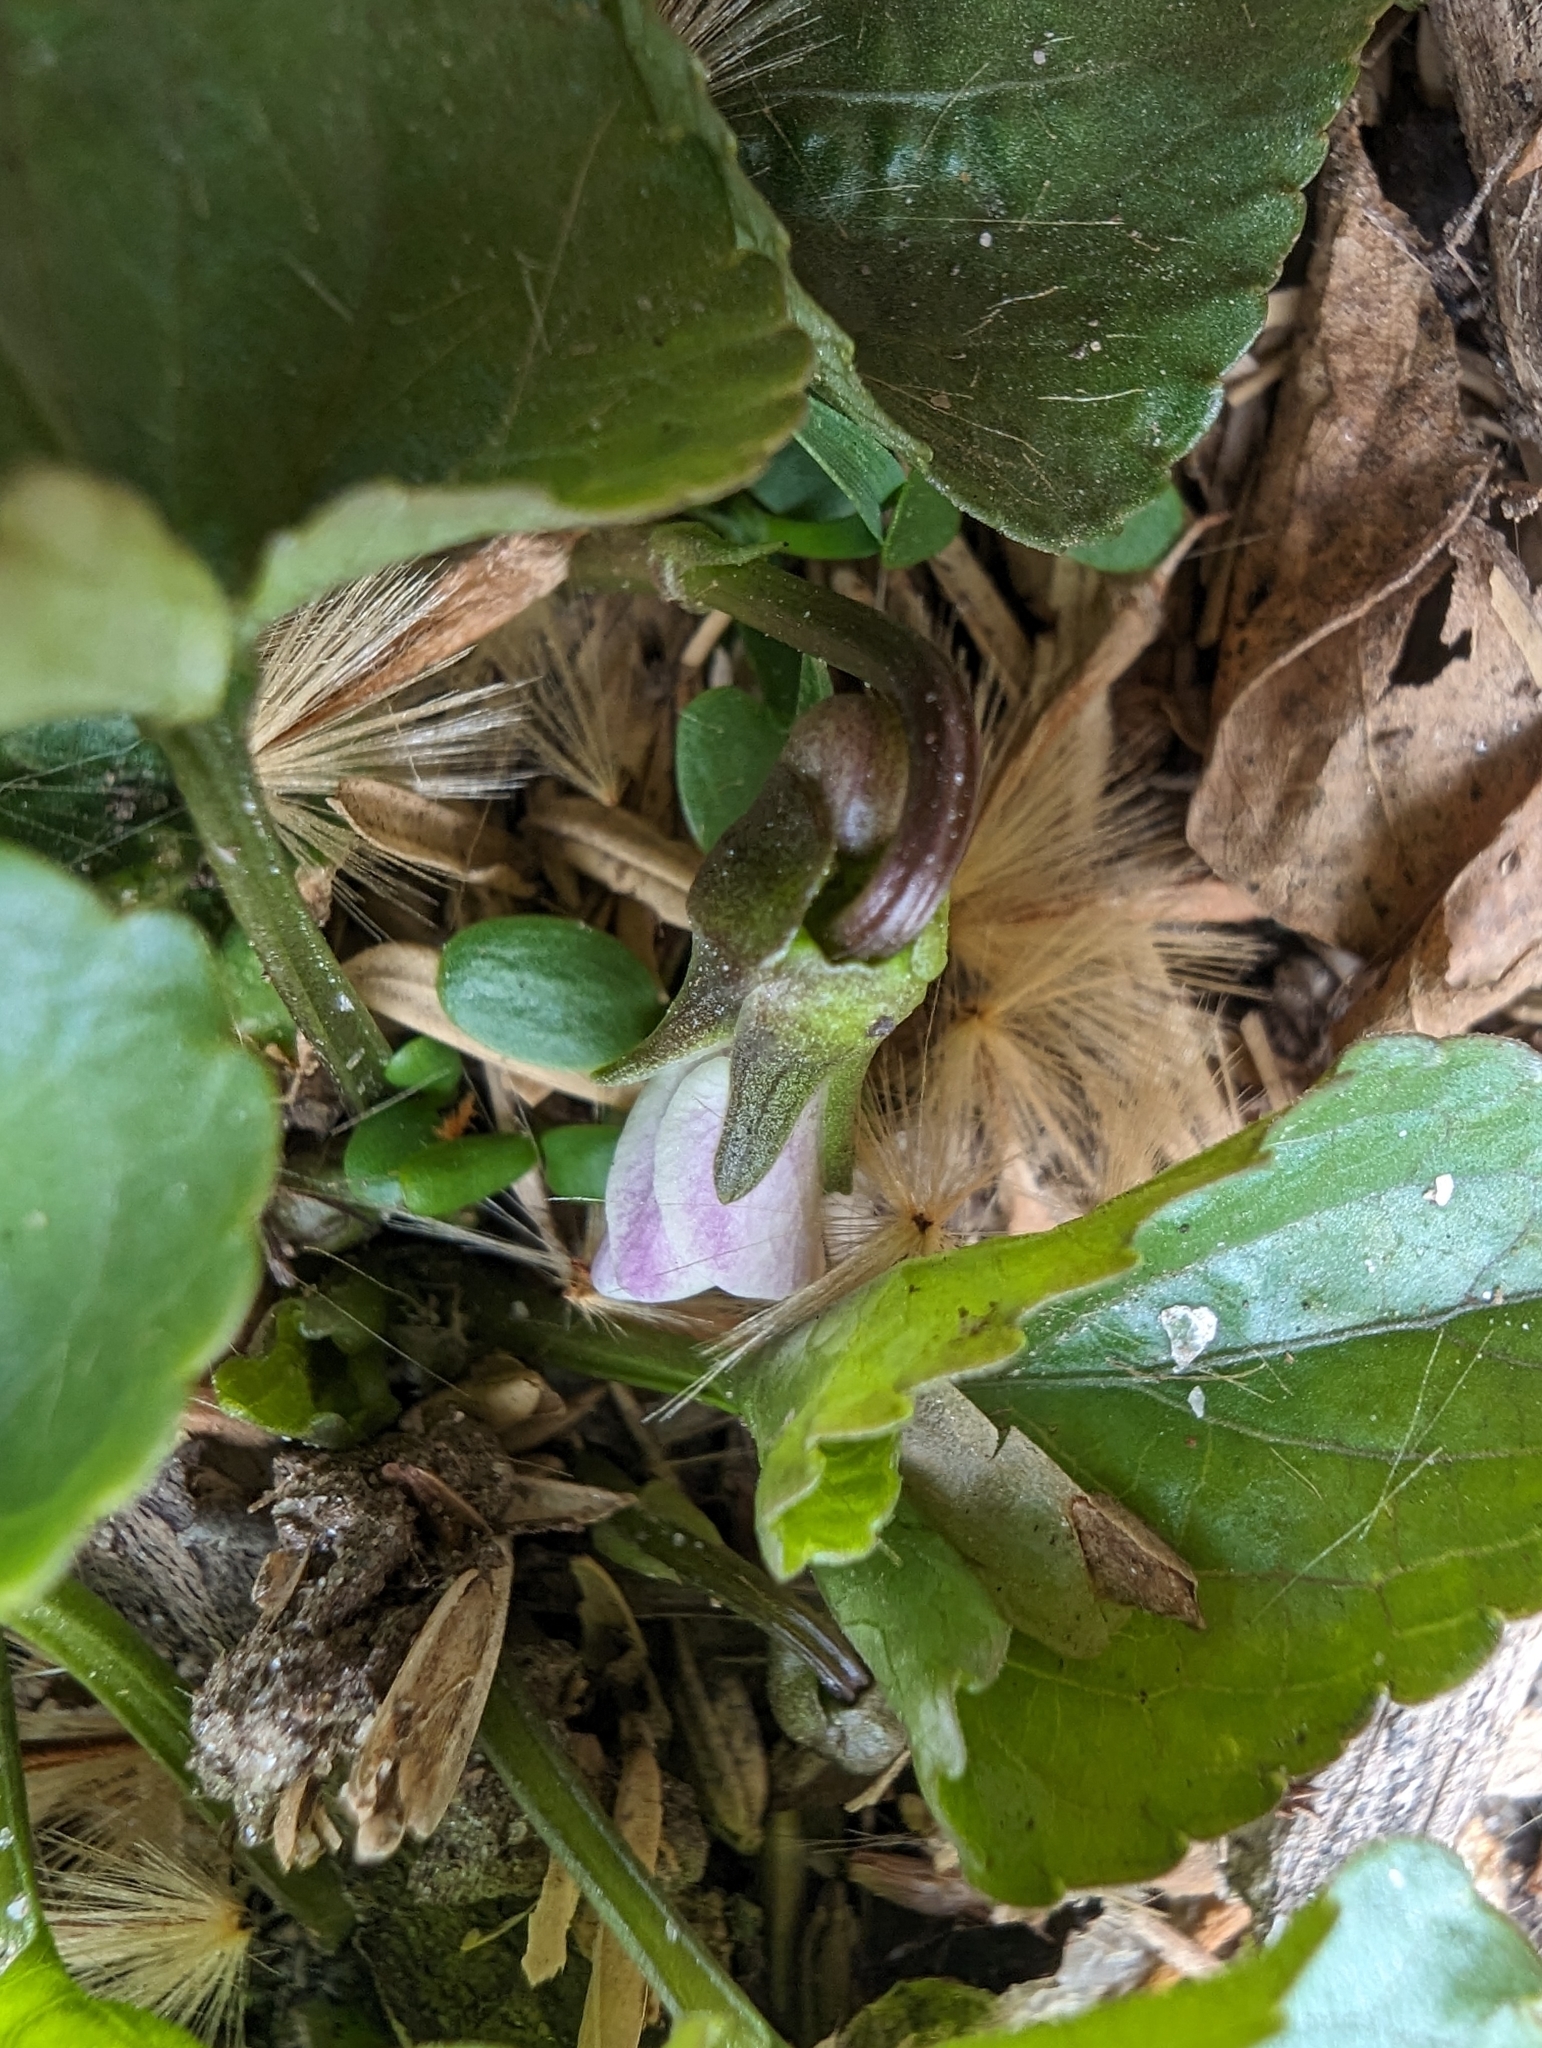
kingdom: Plantae
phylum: Tracheophyta
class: Magnoliopsida
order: Malpighiales
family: Violaceae
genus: Viola
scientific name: Viola sororia
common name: Dooryard violet
